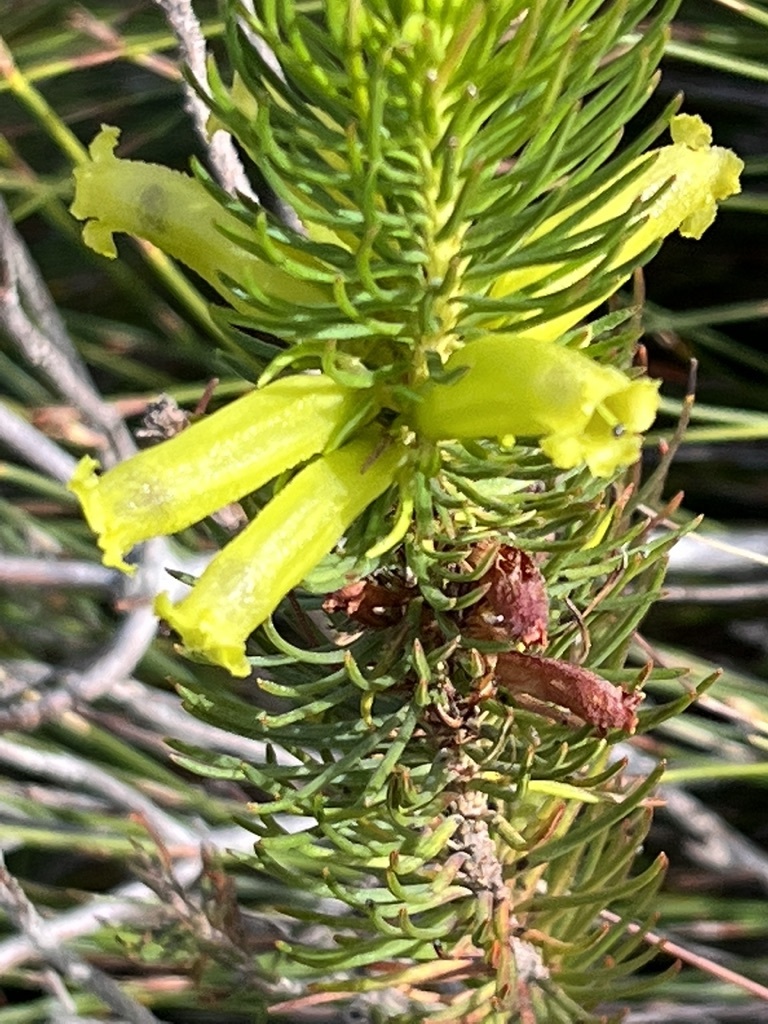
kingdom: Plantae
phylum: Tracheophyta
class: Magnoliopsida
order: Ericales
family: Ericaceae
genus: Erica
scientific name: Erica viscaria
